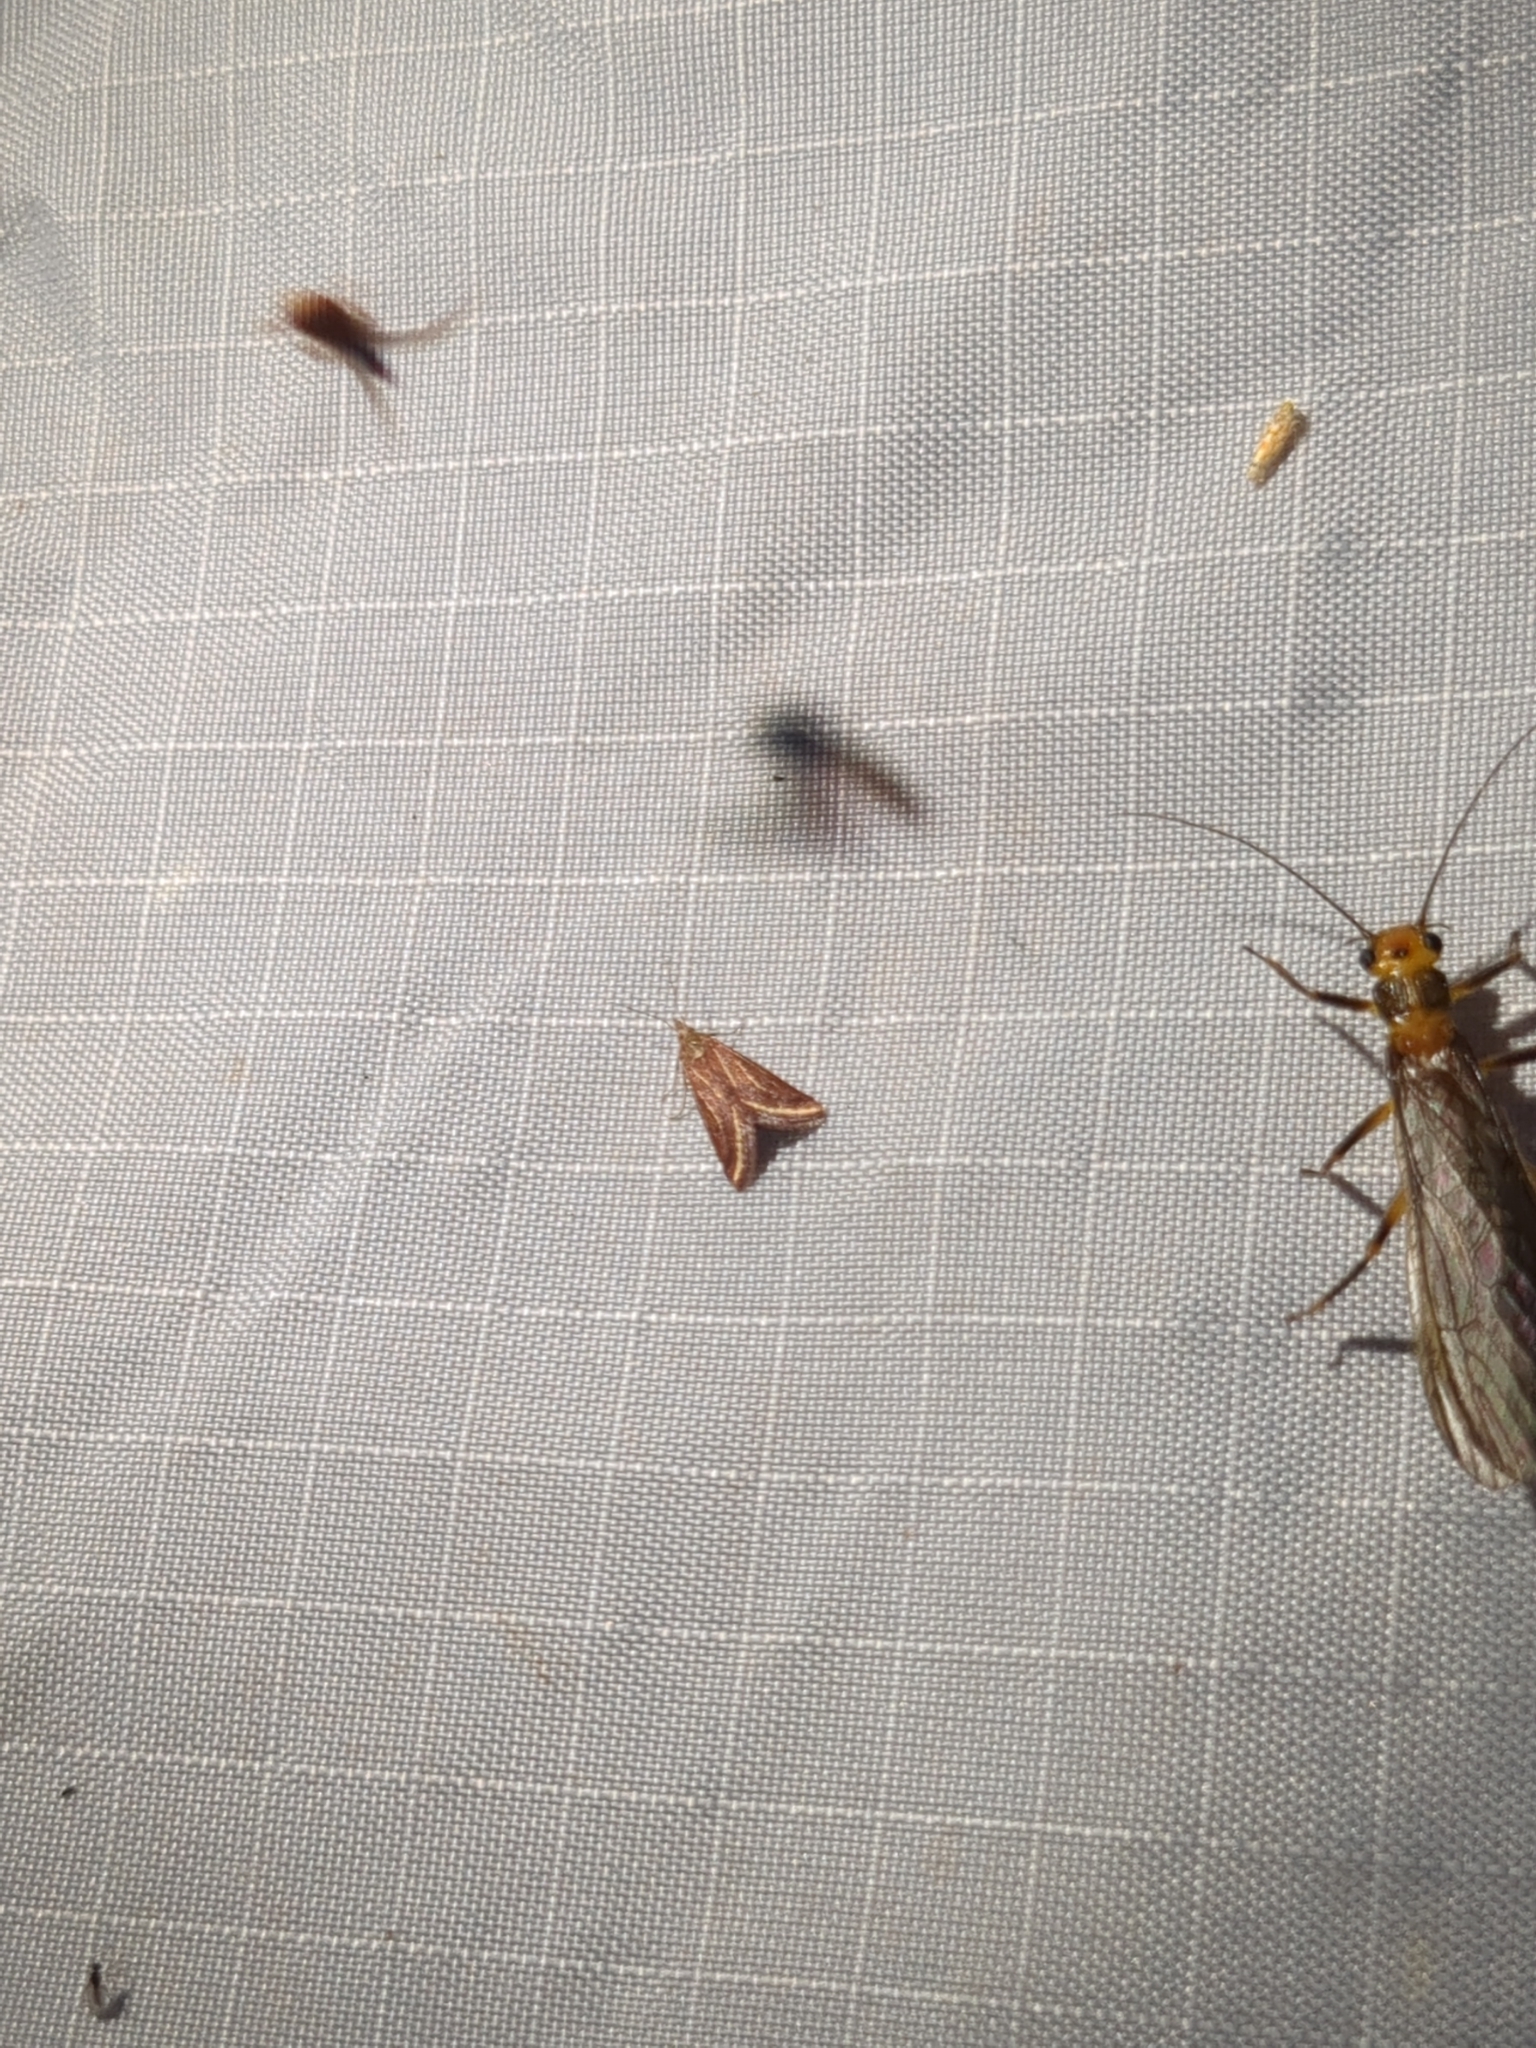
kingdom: Animalia
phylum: Arthropoda
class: Insecta
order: Lepidoptera
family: Crambidae
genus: Microtheoris
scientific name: Microtheoris ophionalis
